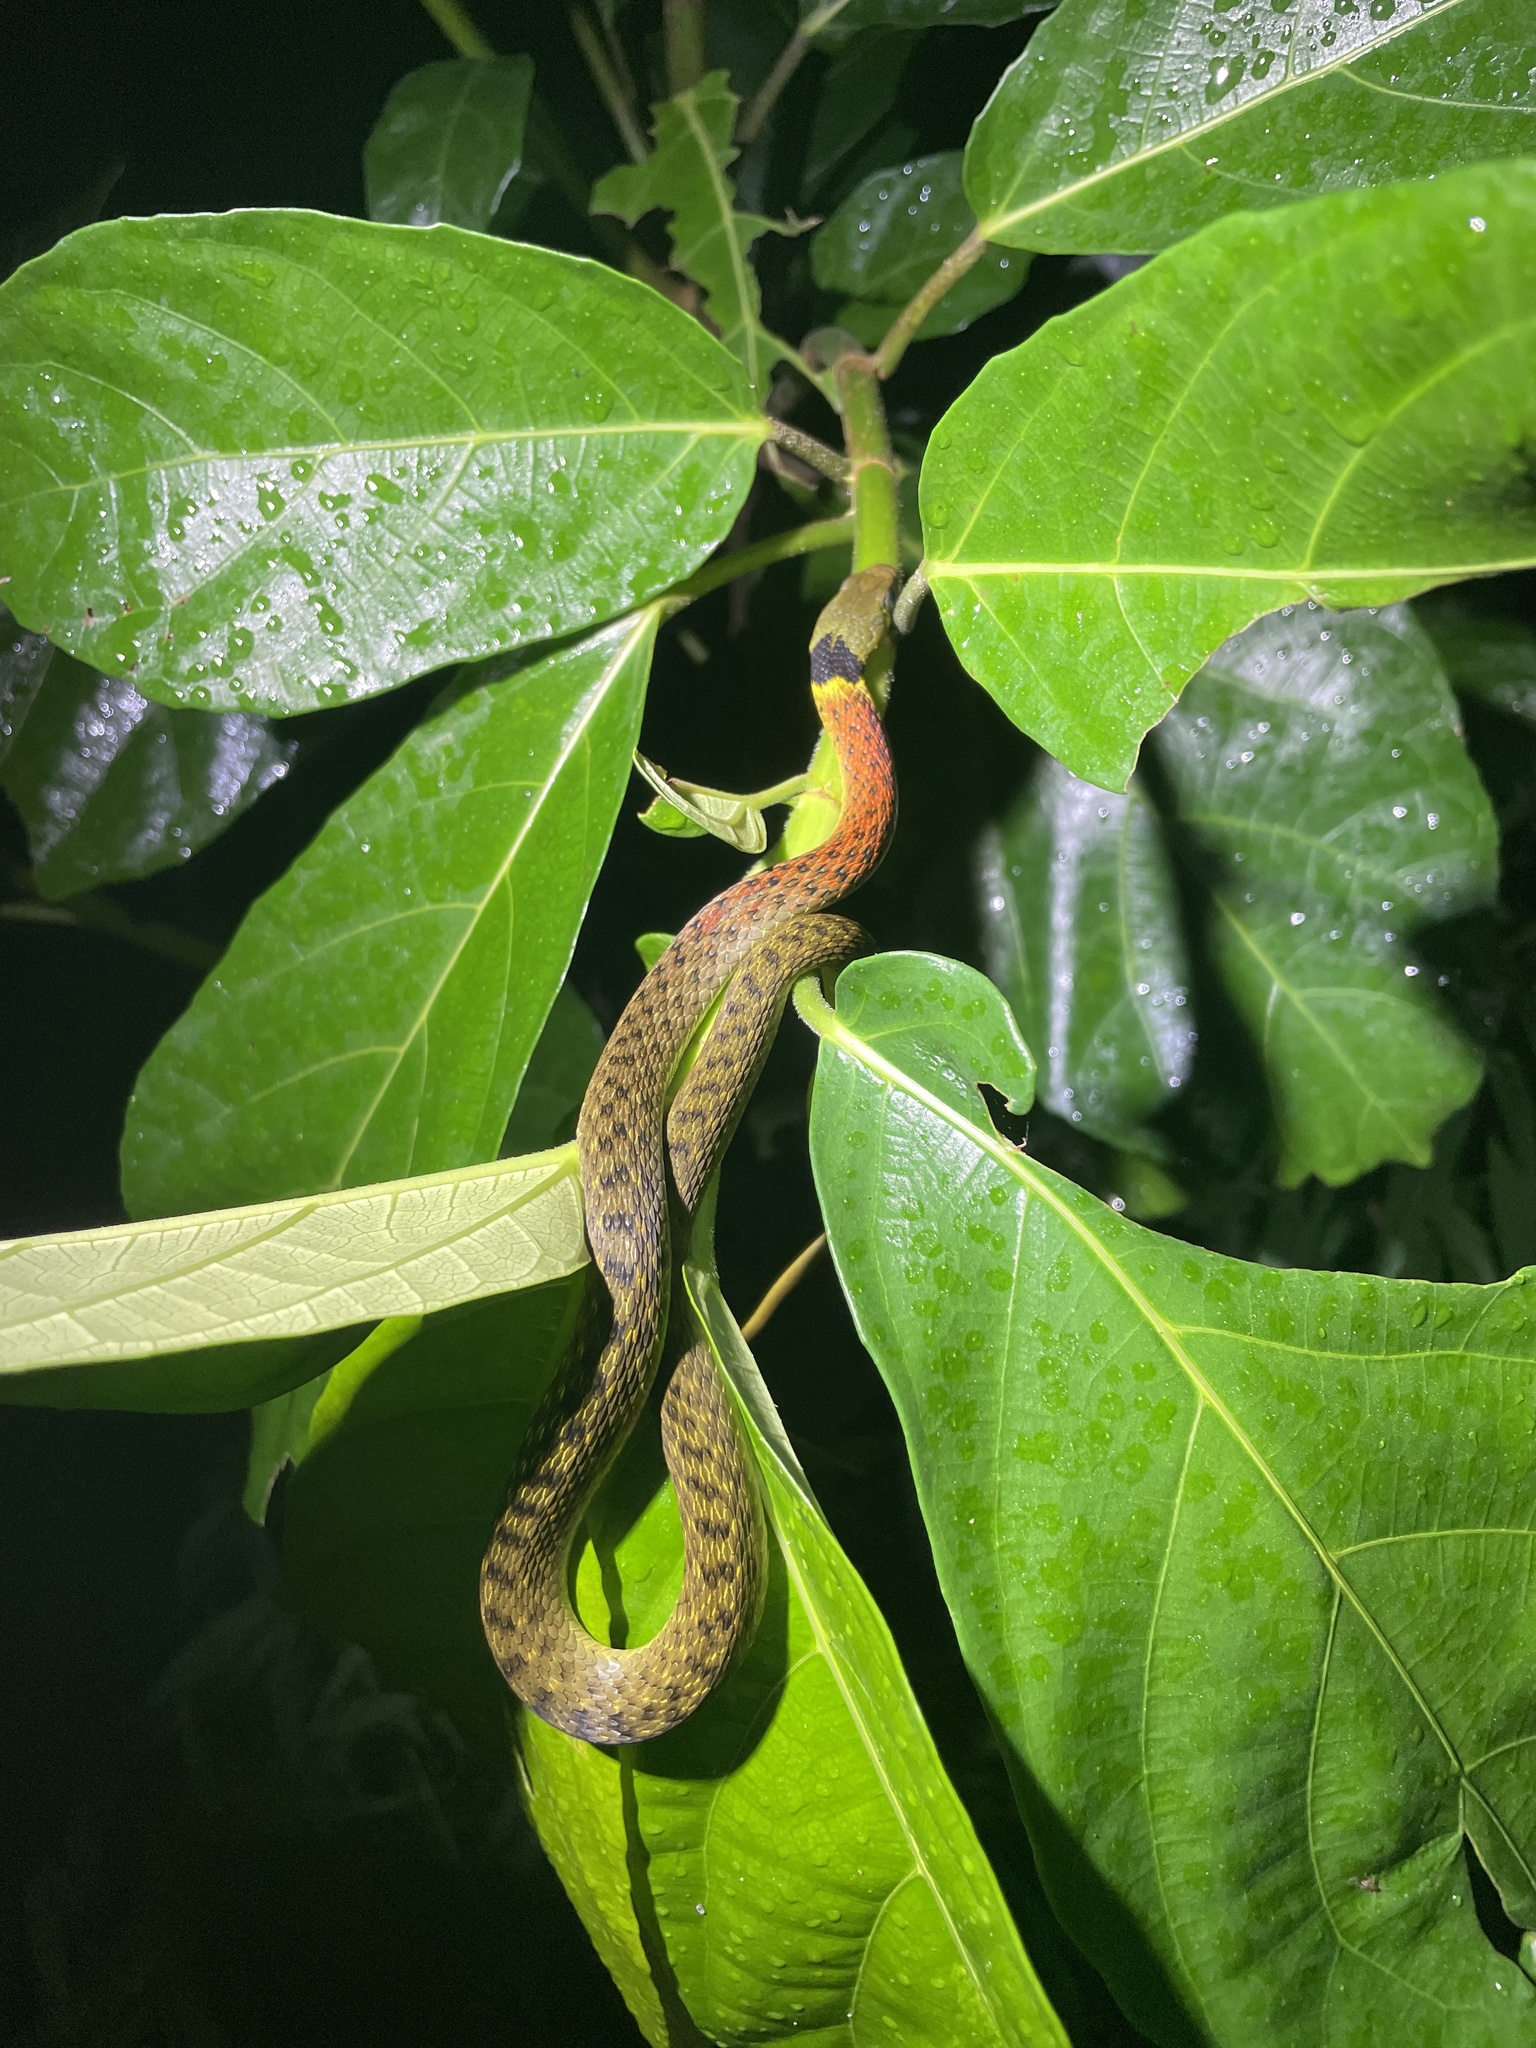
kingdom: Animalia
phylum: Chordata
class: Squamata
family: Colubridae
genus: Rhabdophis
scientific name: Rhabdophis helleri
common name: Heller’s red-necked keelback
